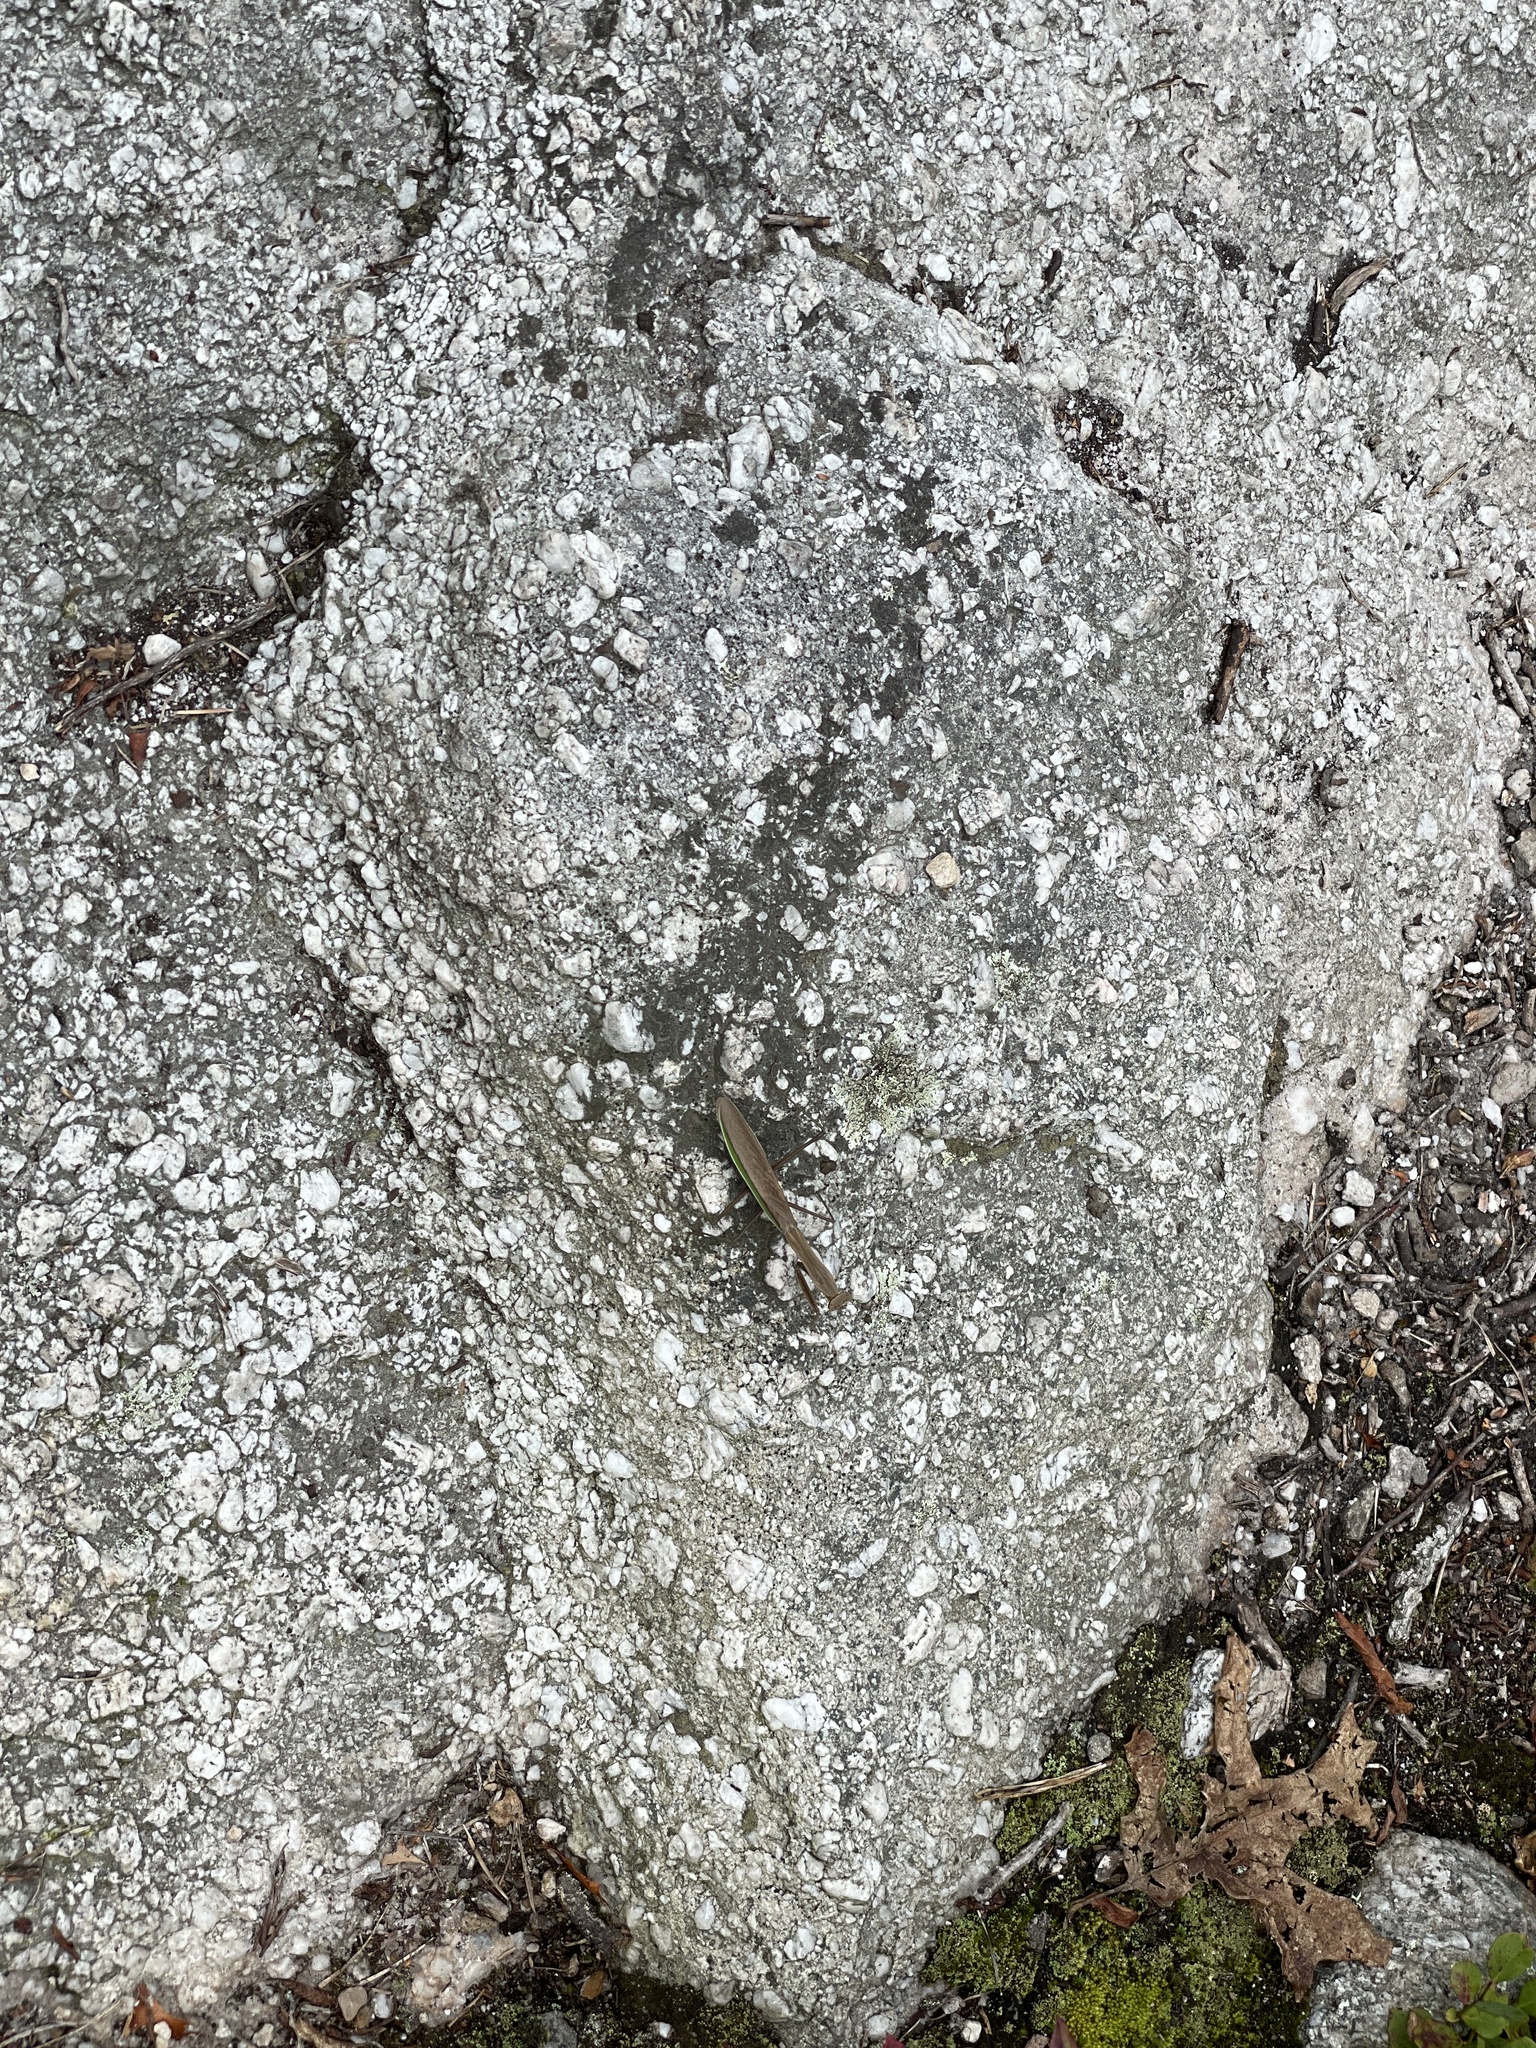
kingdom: Animalia
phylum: Arthropoda
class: Insecta
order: Mantodea
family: Mantidae
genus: Tenodera
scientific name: Tenodera sinensis
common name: Chinese mantis
